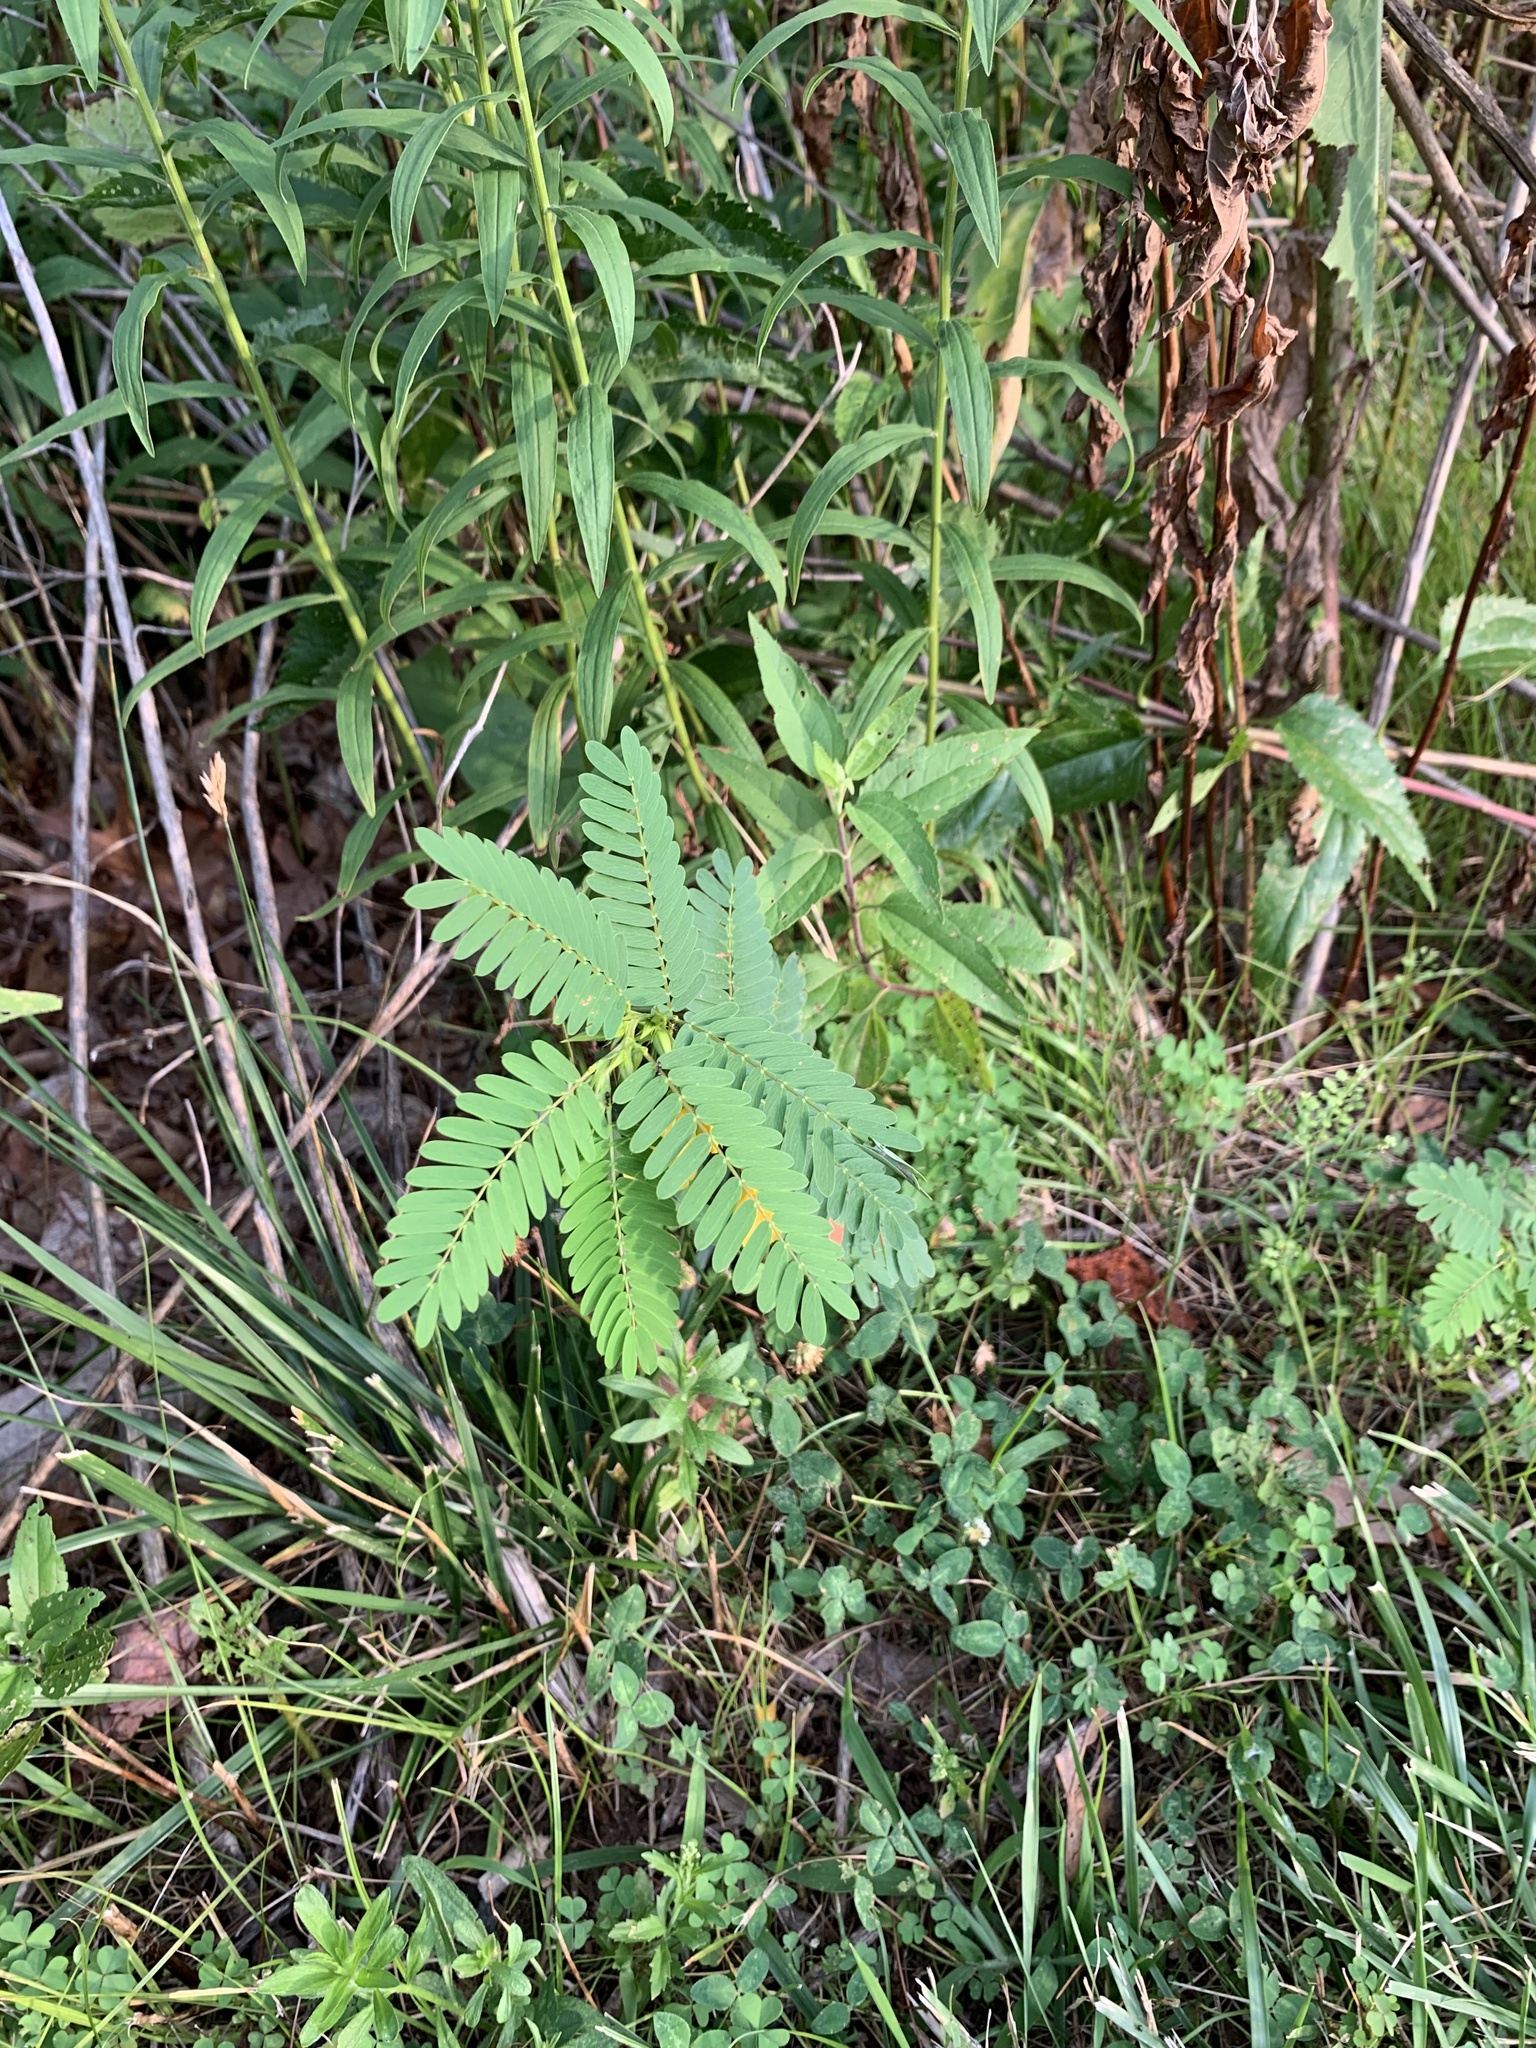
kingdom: Plantae
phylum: Tracheophyta
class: Magnoliopsida
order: Fabales
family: Fabaceae
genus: Chamaecrista
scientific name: Chamaecrista fasciculata
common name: Golden cassia
